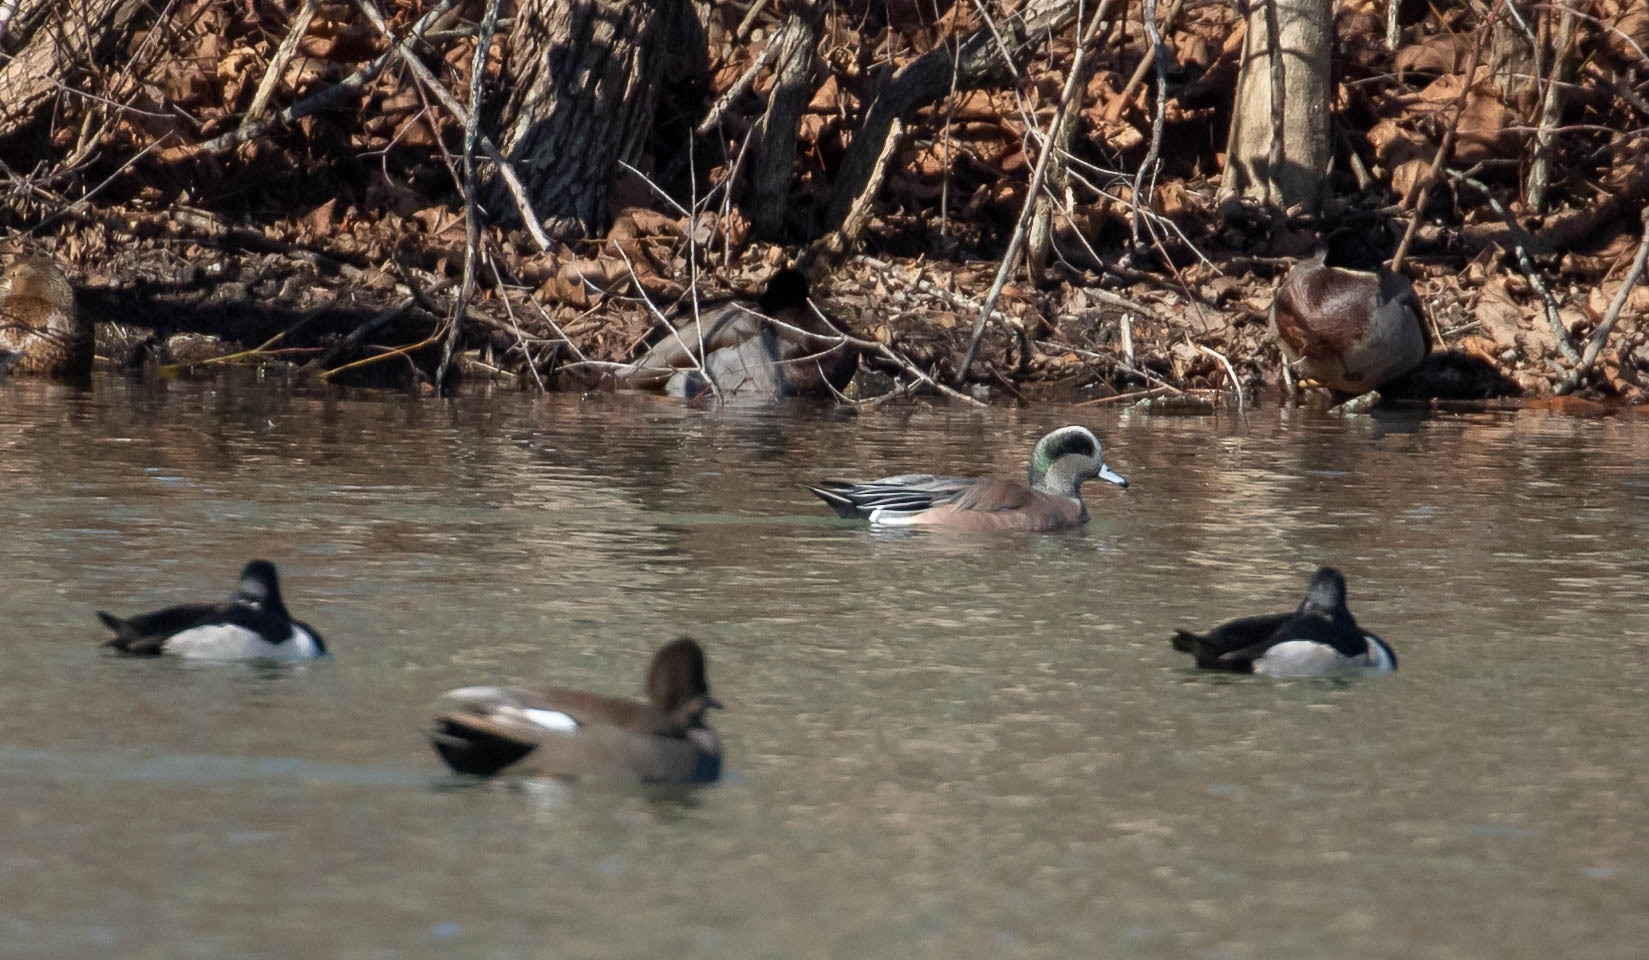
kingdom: Animalia
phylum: Chordata
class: Aves
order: Anseriformes
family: Anatidae
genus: Mareca
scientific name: Mareca americana
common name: American wigeon
